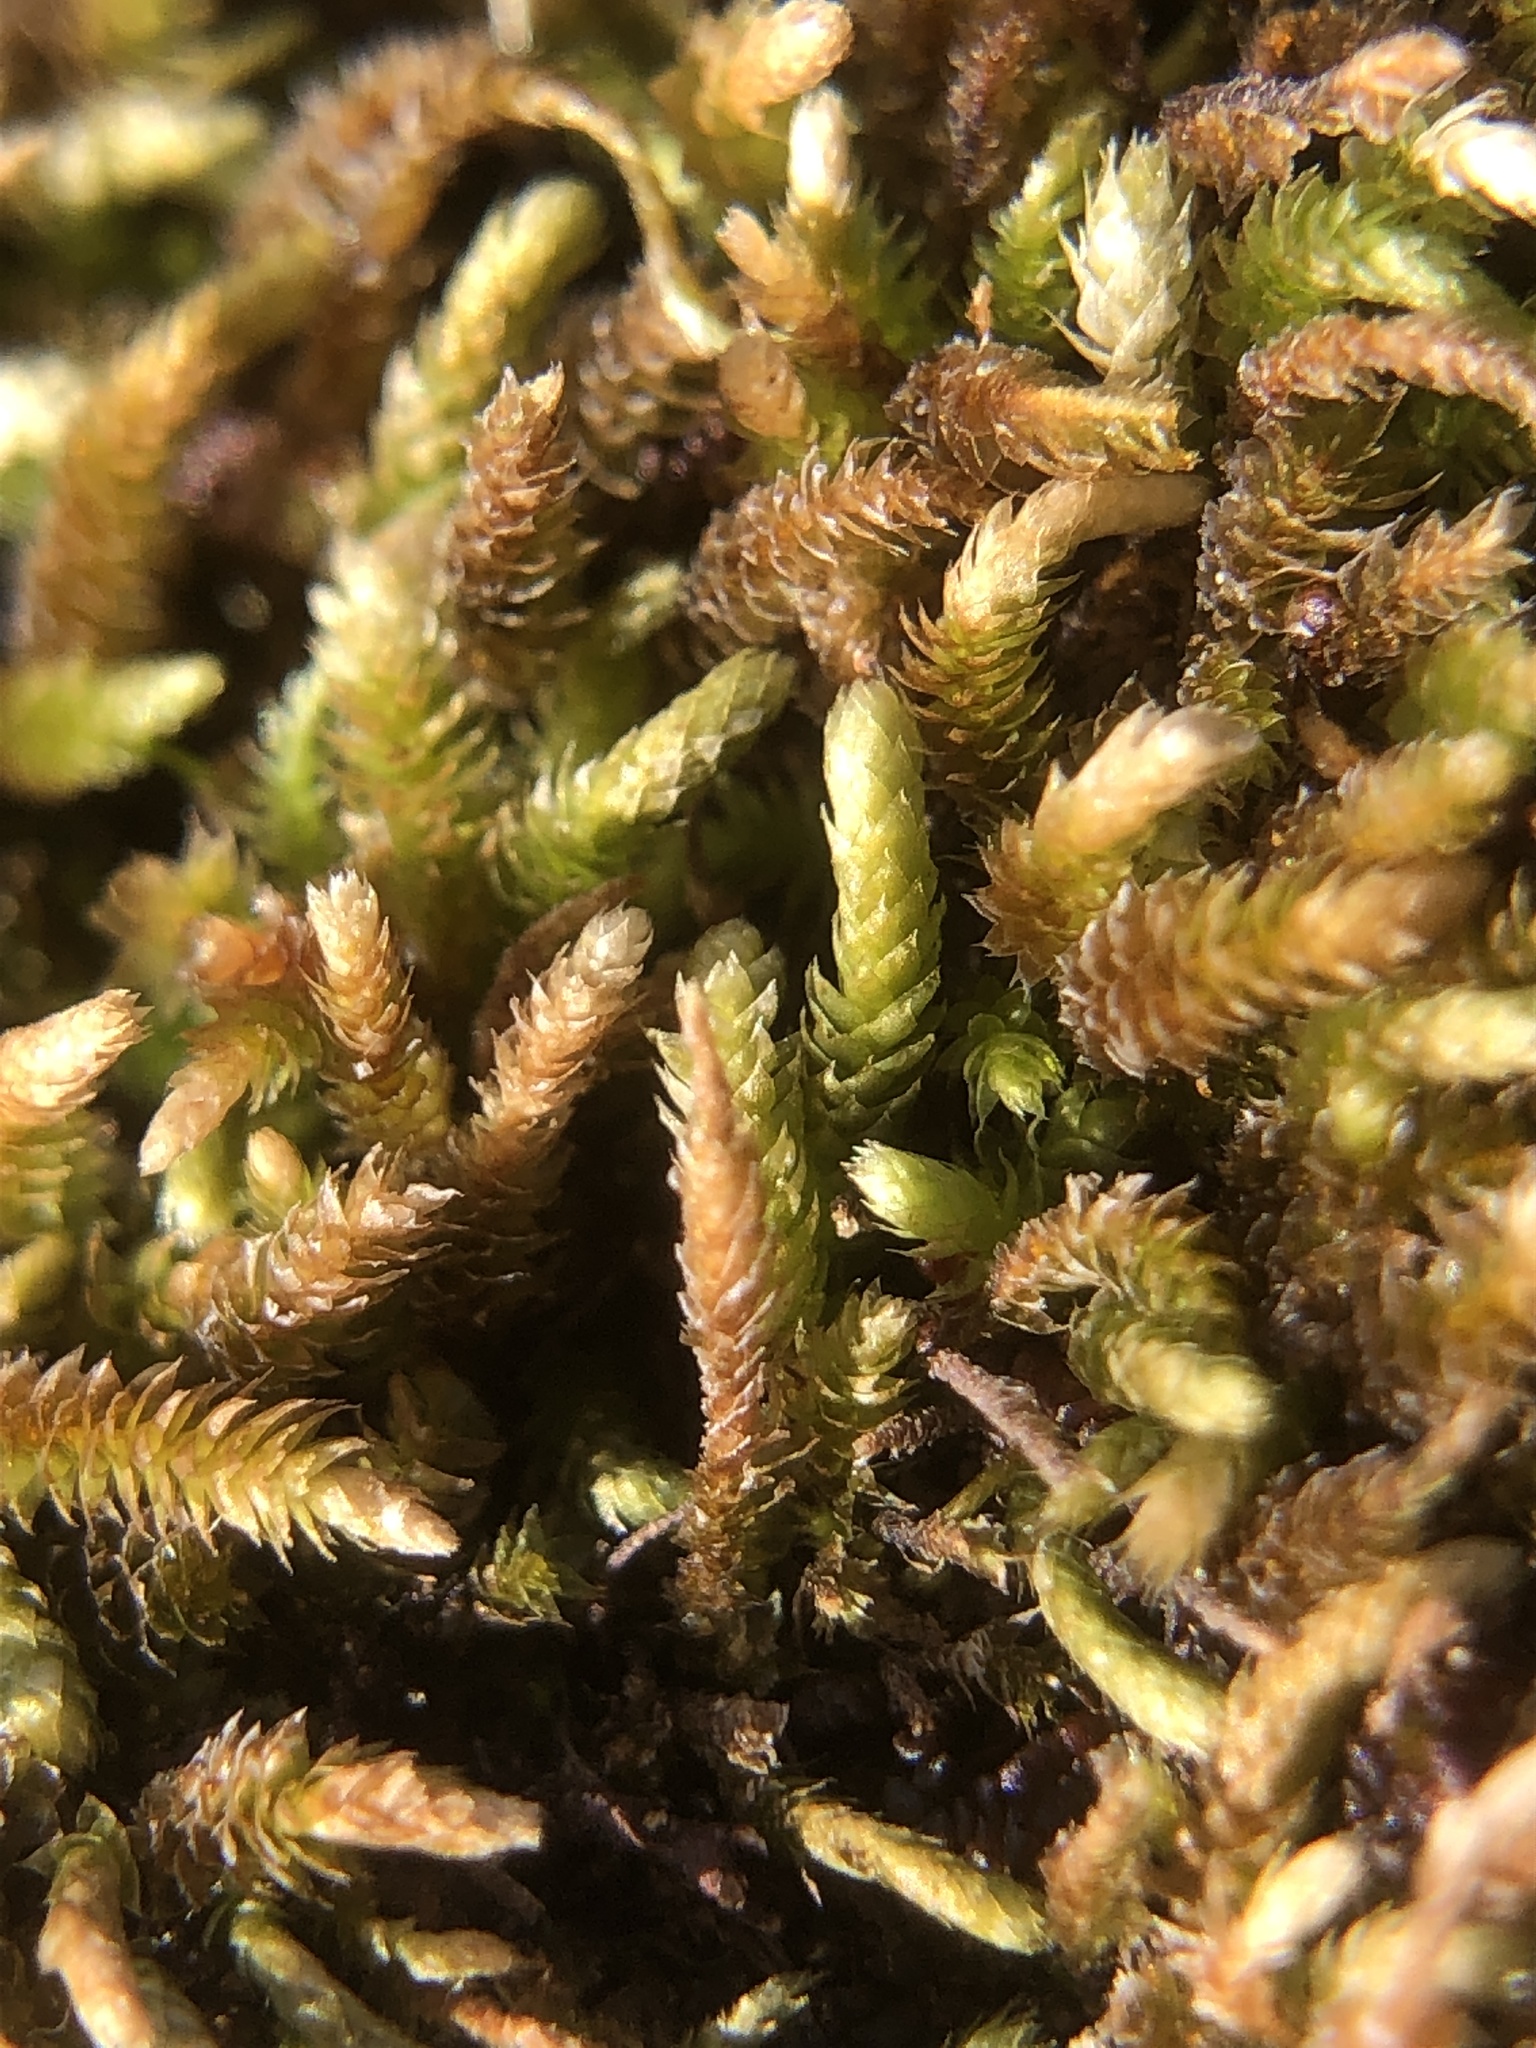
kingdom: Plantae
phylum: Bryophyta
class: Bryopsida
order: Hypnales
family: Lembophyllaceae
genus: Nogopterium
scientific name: Nogopterium gracile
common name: Bird's-foot wing-moss
